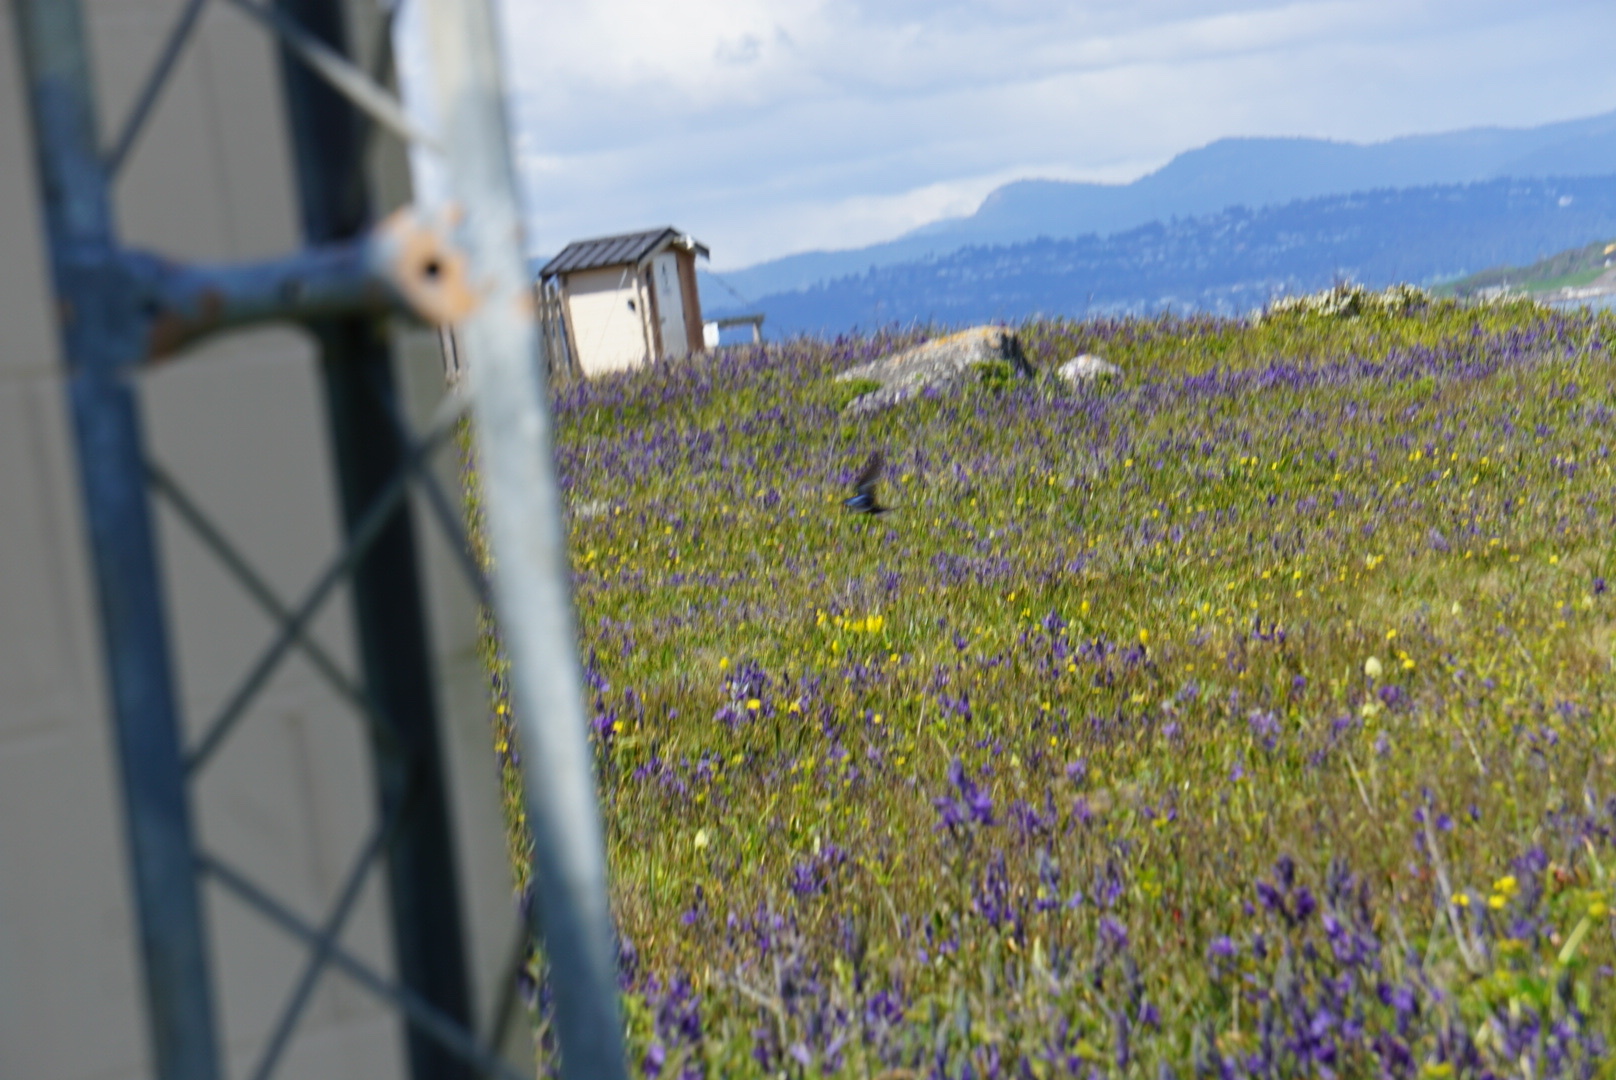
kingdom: Animalia
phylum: Chordata
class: Aves
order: Passeriformes
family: Hirundinidae
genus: Hirundo
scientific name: Hirundo rustica
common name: Barn swallow
